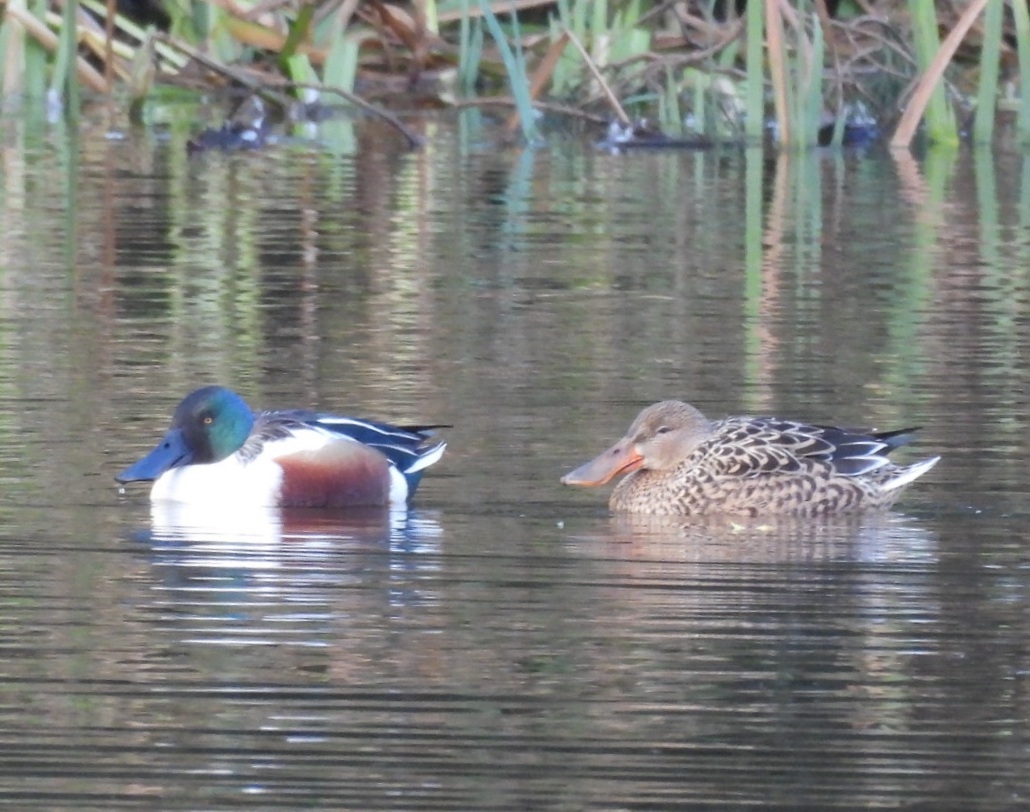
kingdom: Animalia
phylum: Chordata
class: Aves
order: Anseriformes
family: Anatidae
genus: Spatula
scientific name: Spatula clypeata
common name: Northern shoveler
